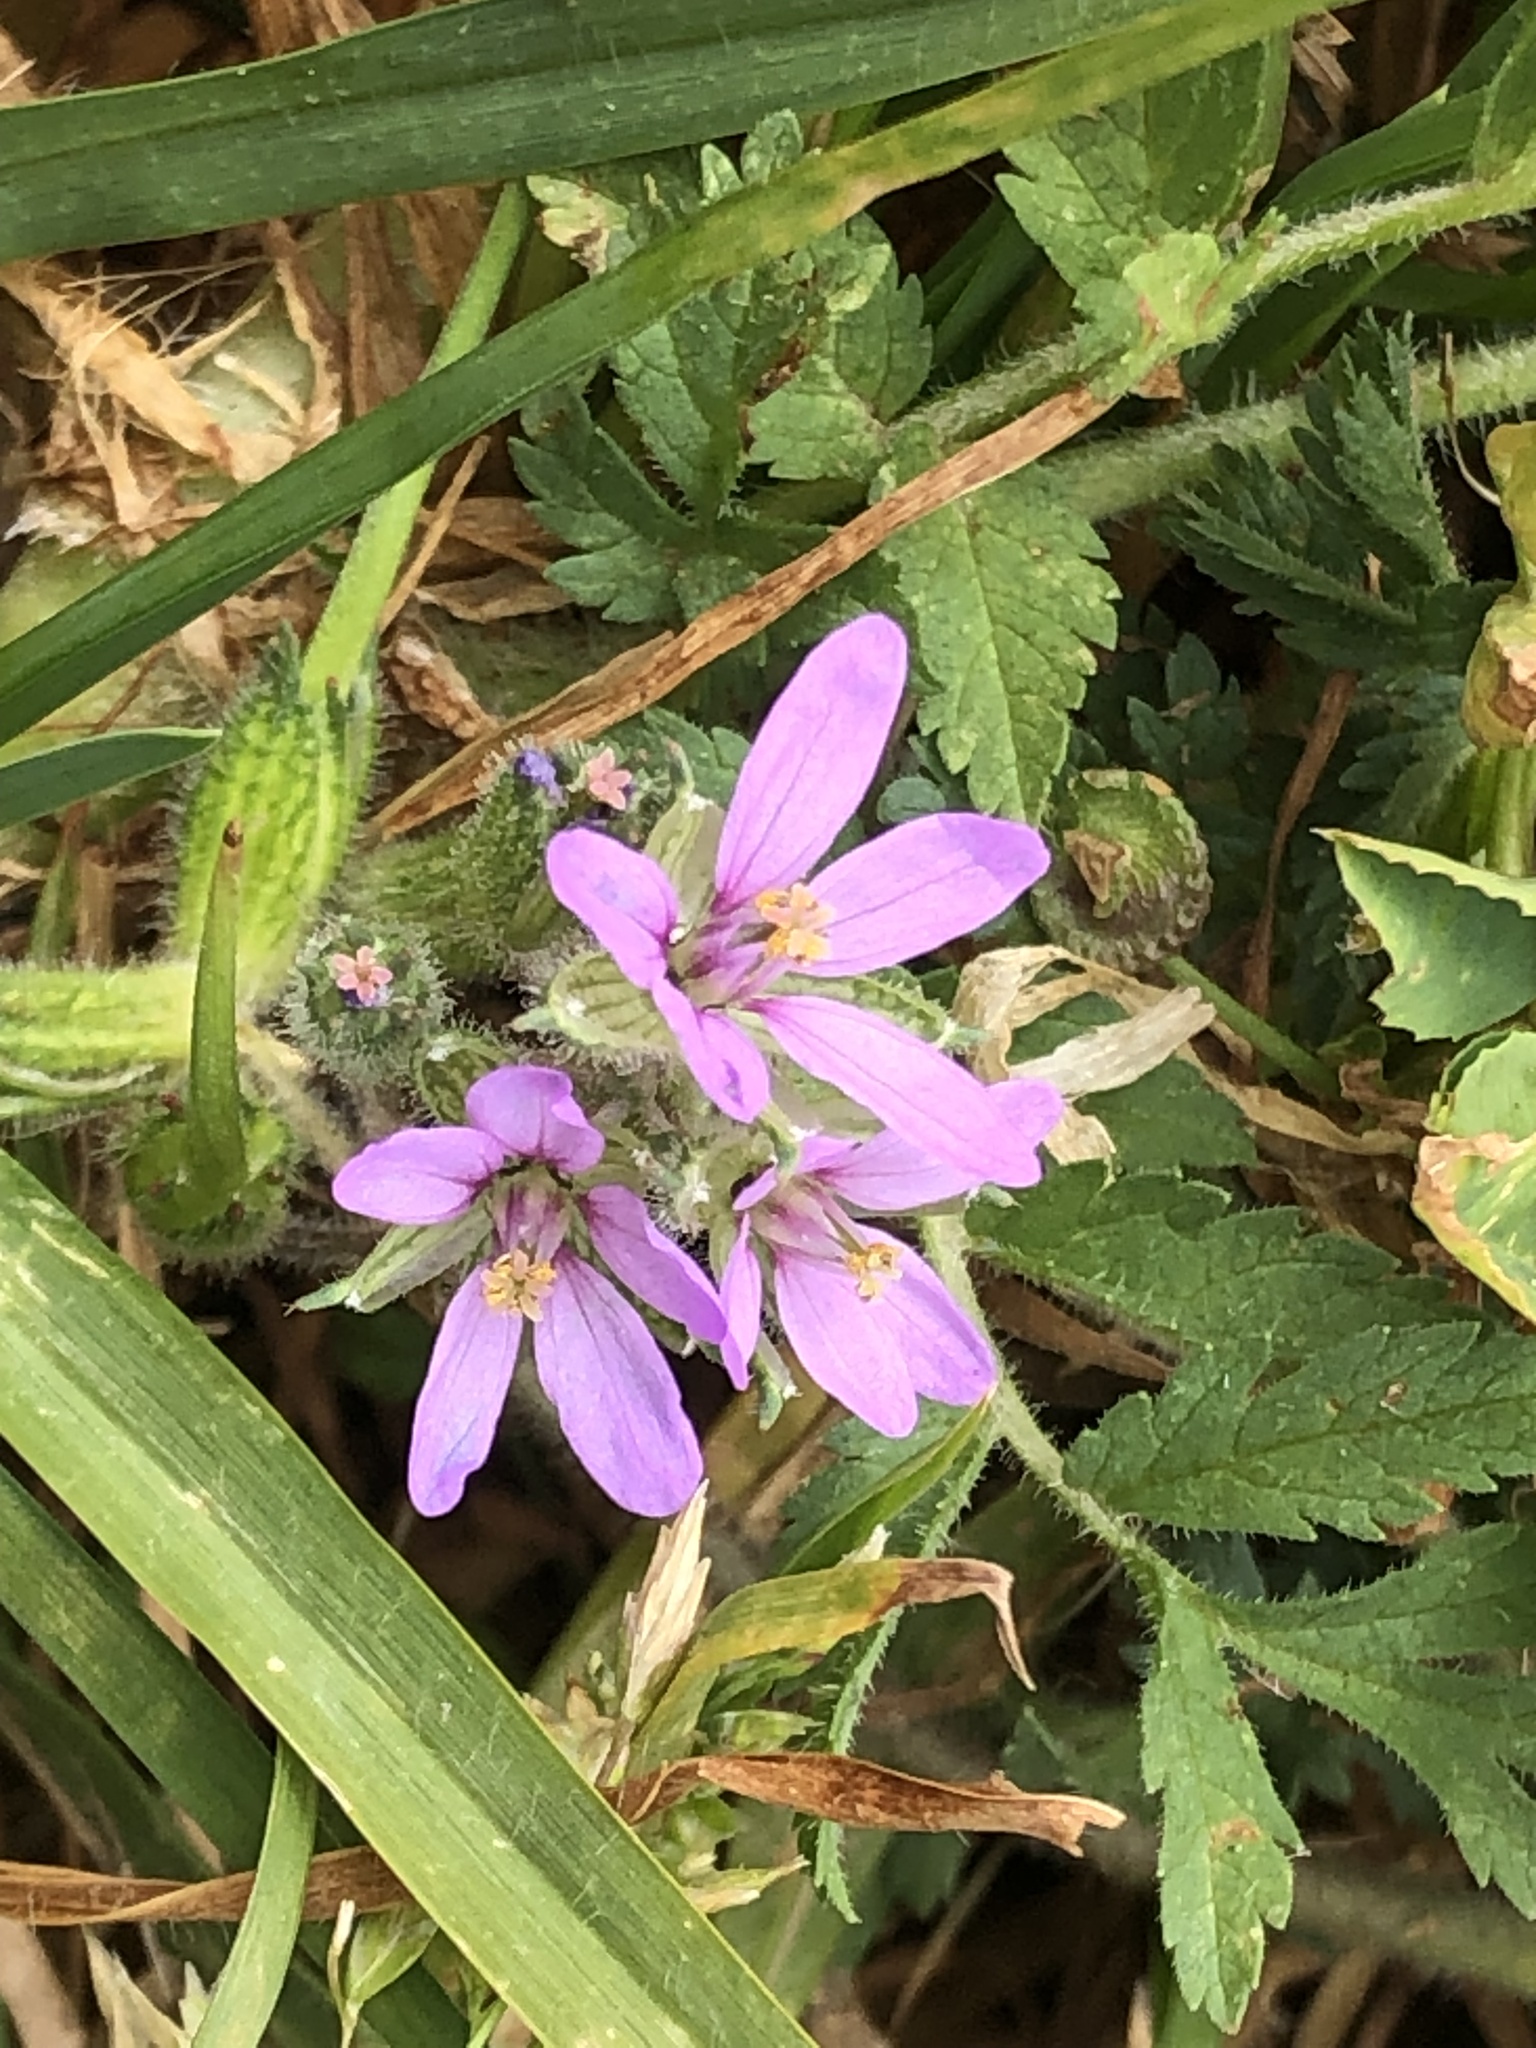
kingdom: Plantae
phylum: Tracheophyta
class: Magnoliopsida
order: Geraniales
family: Geraniaceae
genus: Erodium
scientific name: Erodium moschatum
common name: Musk stork's-bill
